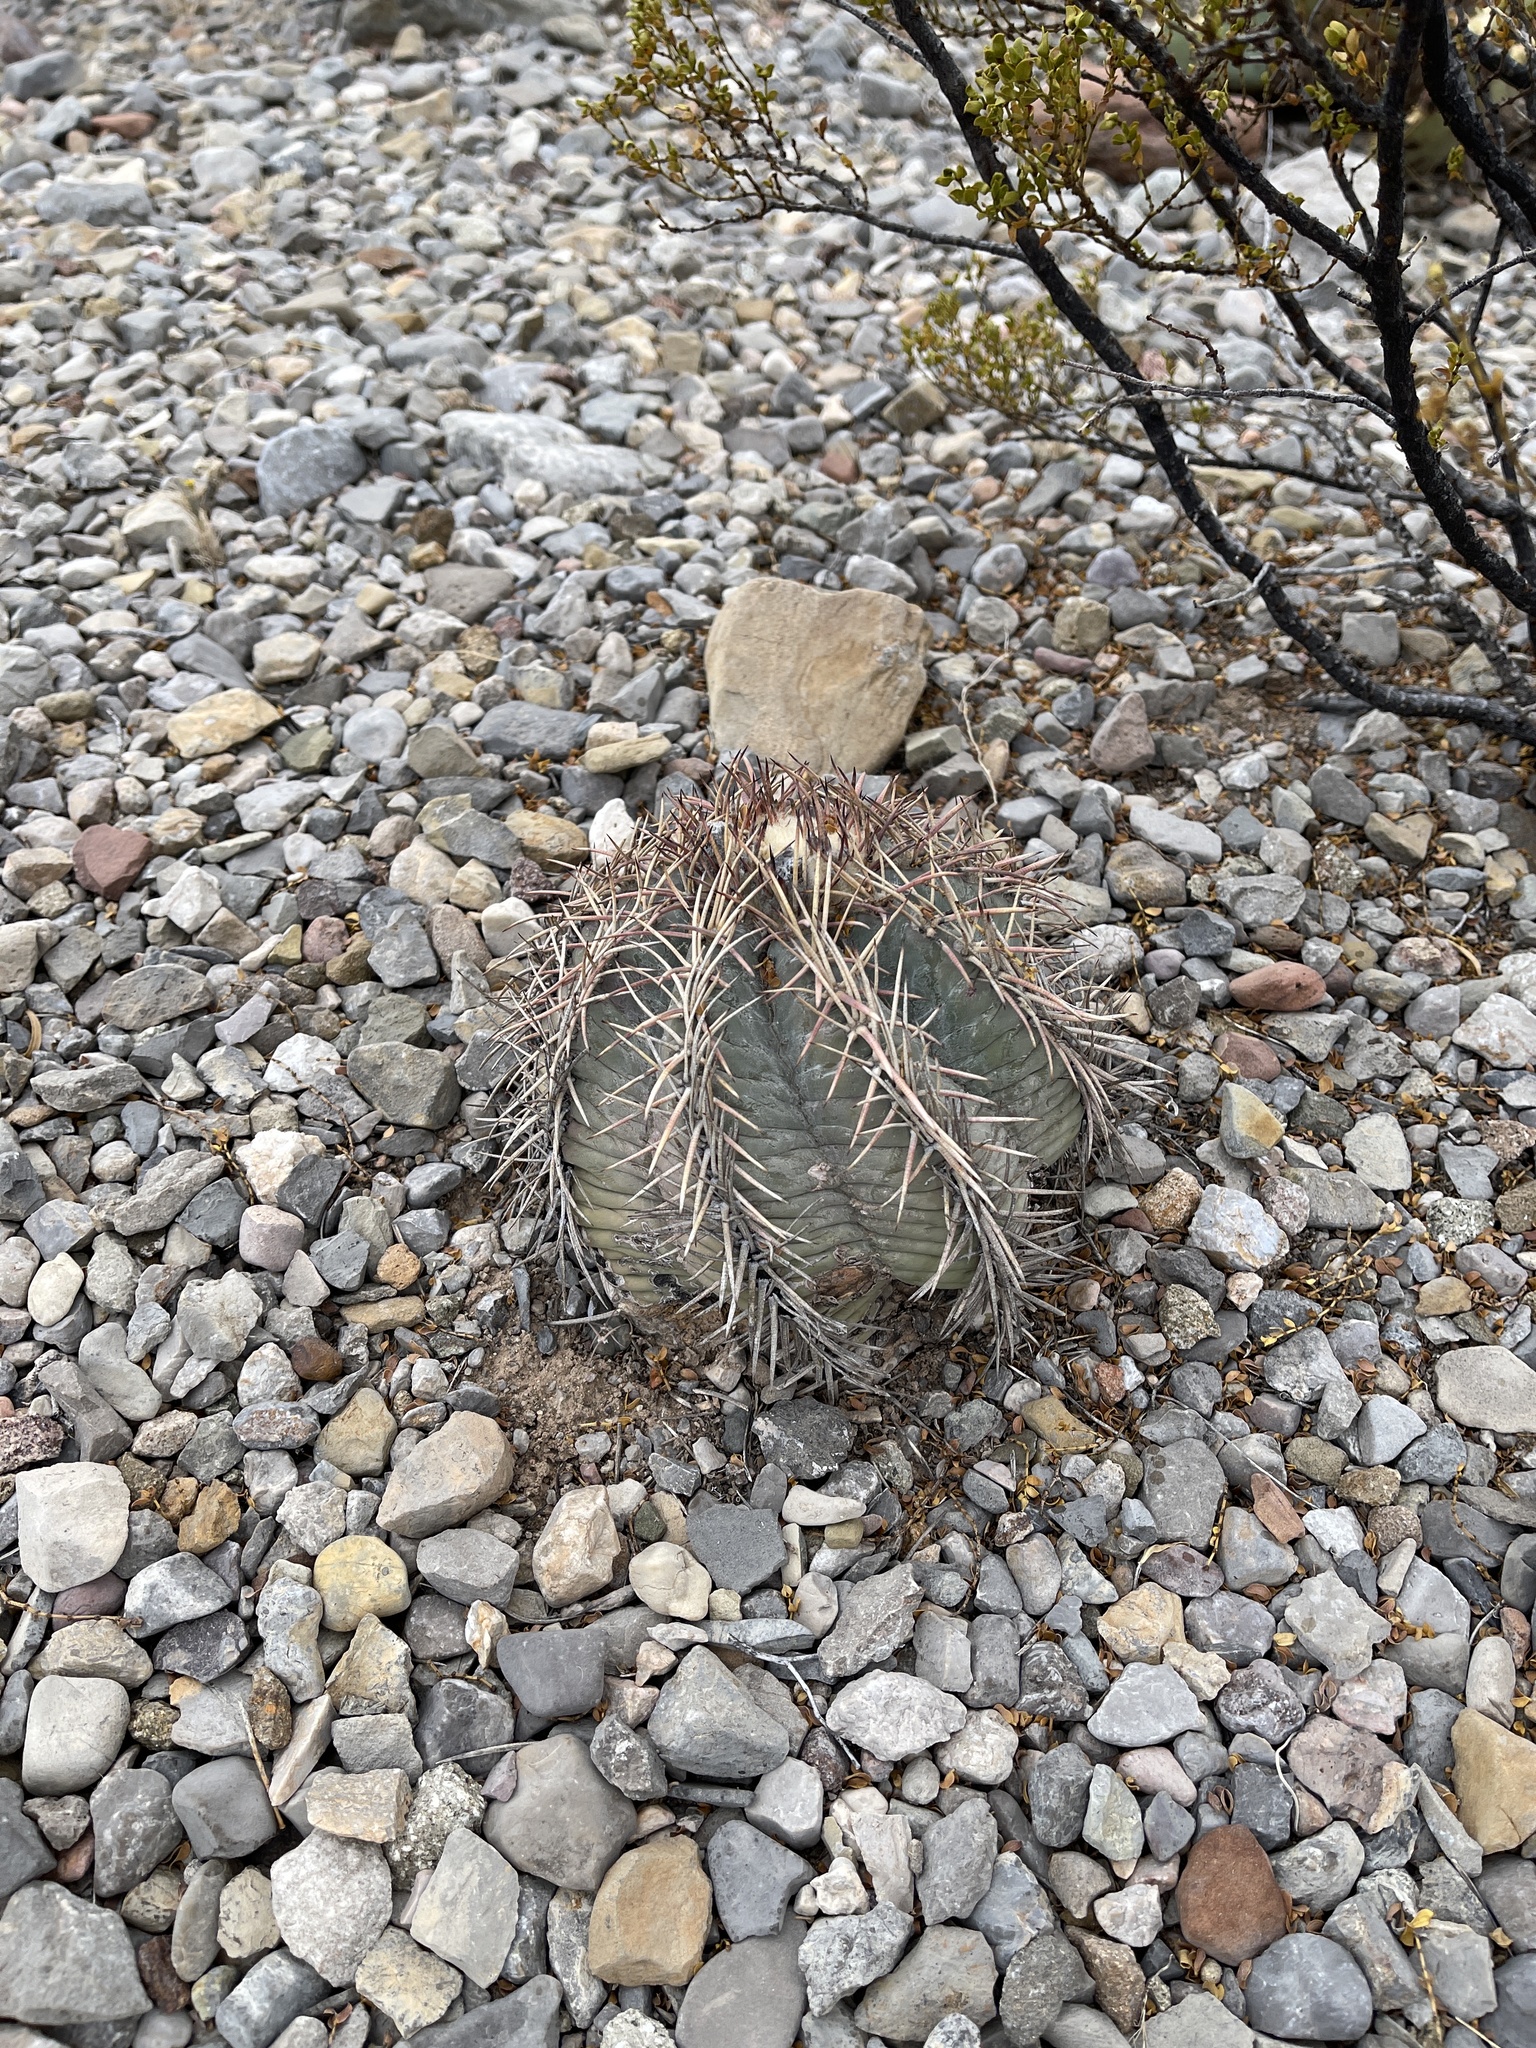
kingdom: Plantae
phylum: Tracheophyta
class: Magnoliopsida
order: Caryophyllales
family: Cactaceae
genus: Echinocactus
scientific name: Echinocactus horizonthalonius
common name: Devilshead
